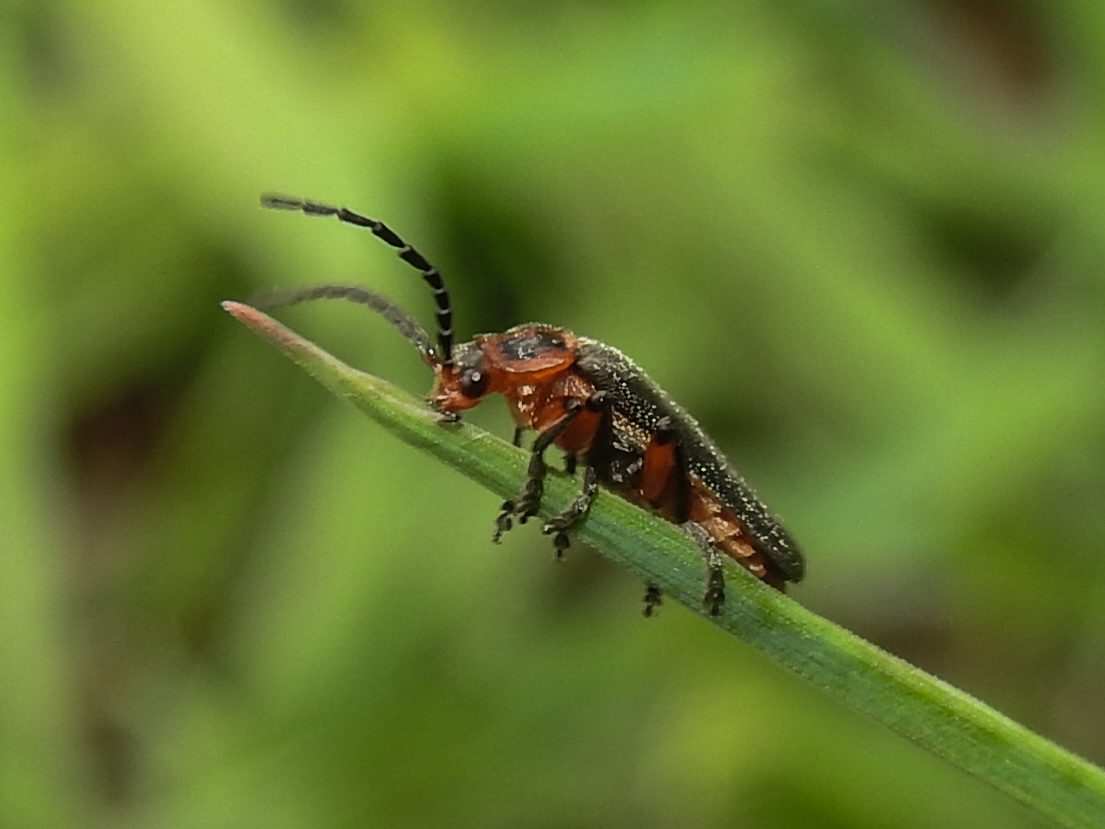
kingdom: Animalia
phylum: Arthropoda
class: Insecta
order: Coleoptera
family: Cantharidae
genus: Atalantycha
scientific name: Atalantycha bilineata
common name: Two-lined leatherwing
